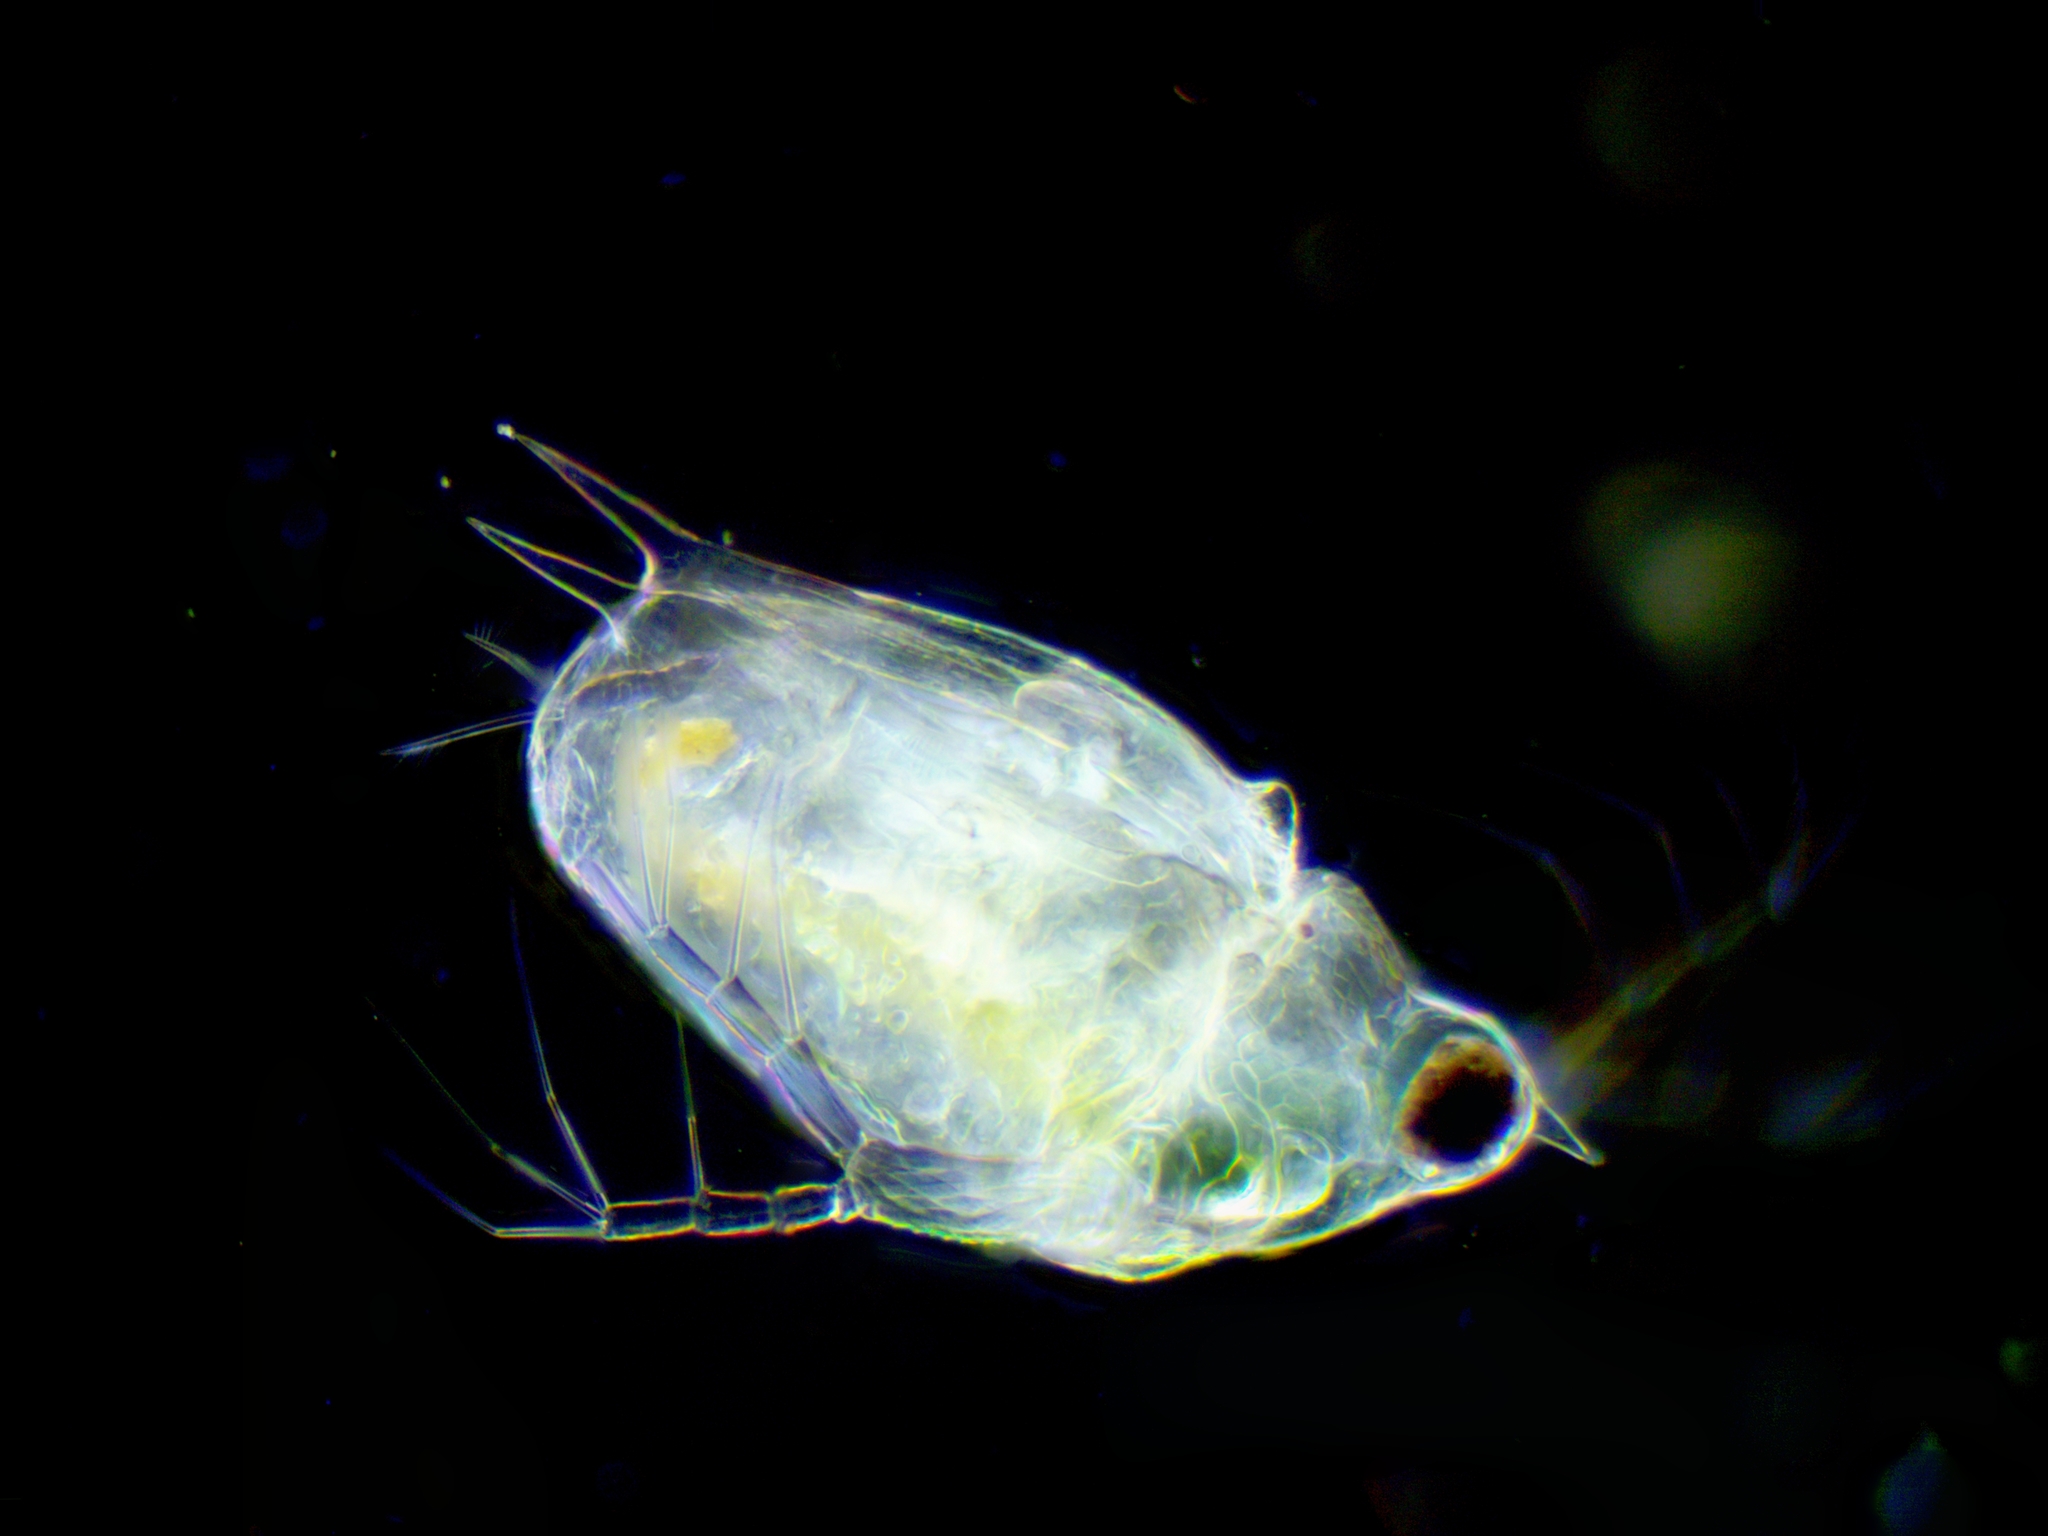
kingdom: Animalia
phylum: Arthropoda
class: Branchiopoda
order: Diplostraca
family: Daphniidae
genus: Scapholeberis
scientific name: Scapholeberis mucronata
